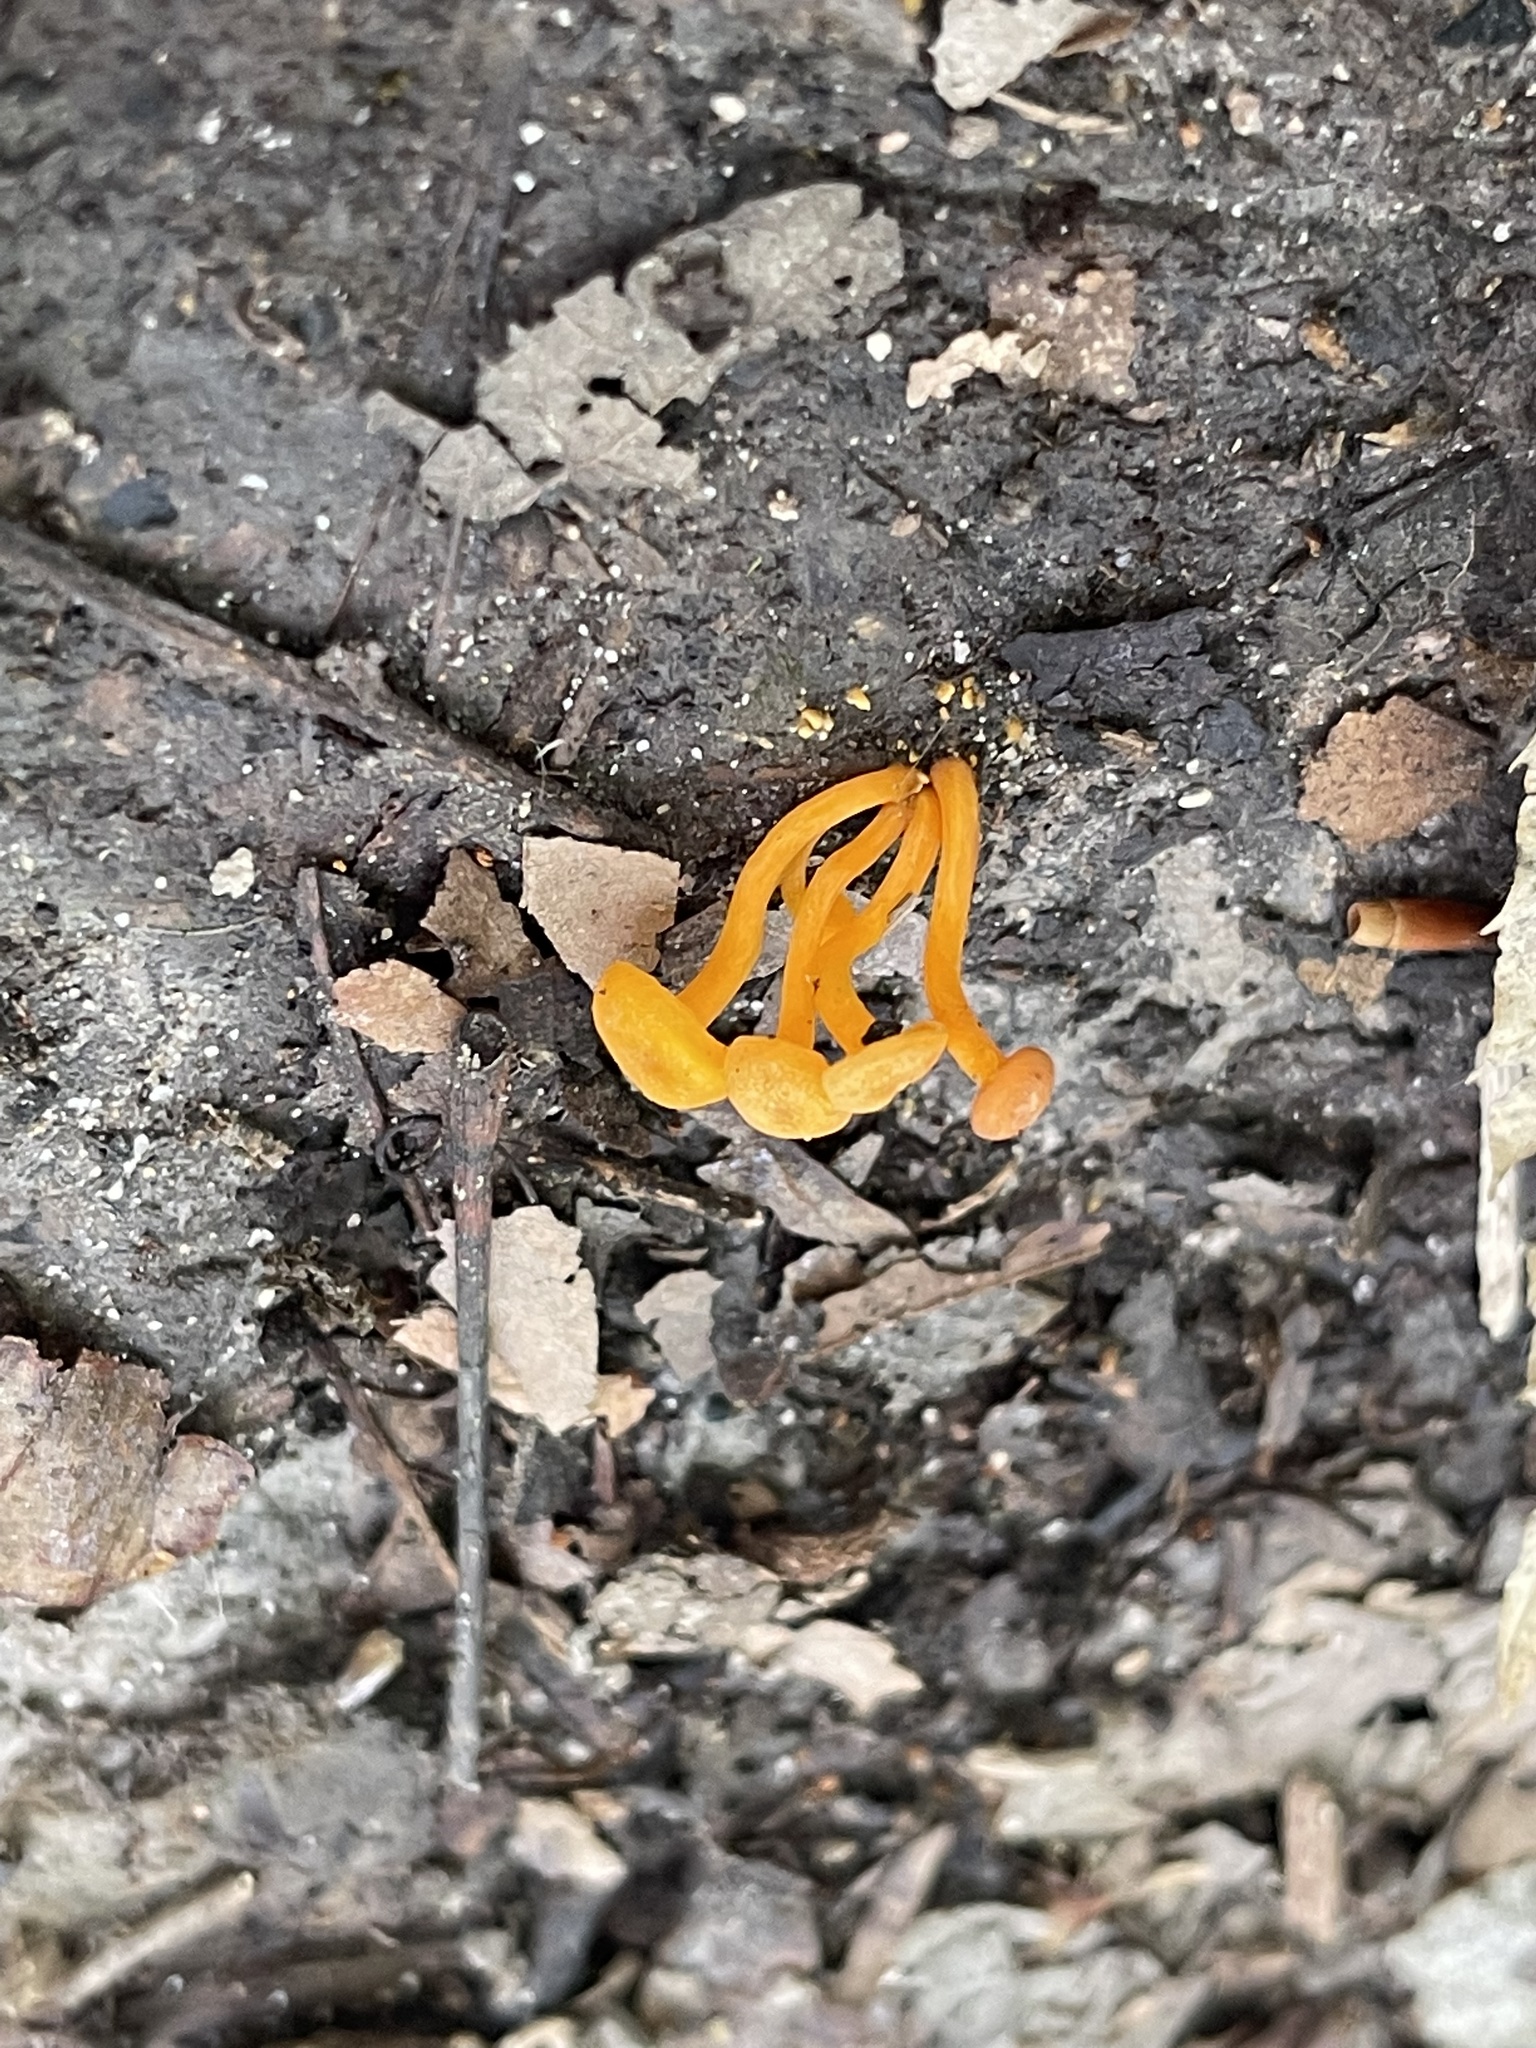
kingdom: Fungi
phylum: Basidiomycota
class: Agaricomycetes
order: Cantharellales
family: Hydnaceae
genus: Cantharellus
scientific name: Cantharellus minor
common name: Small chanterelle
